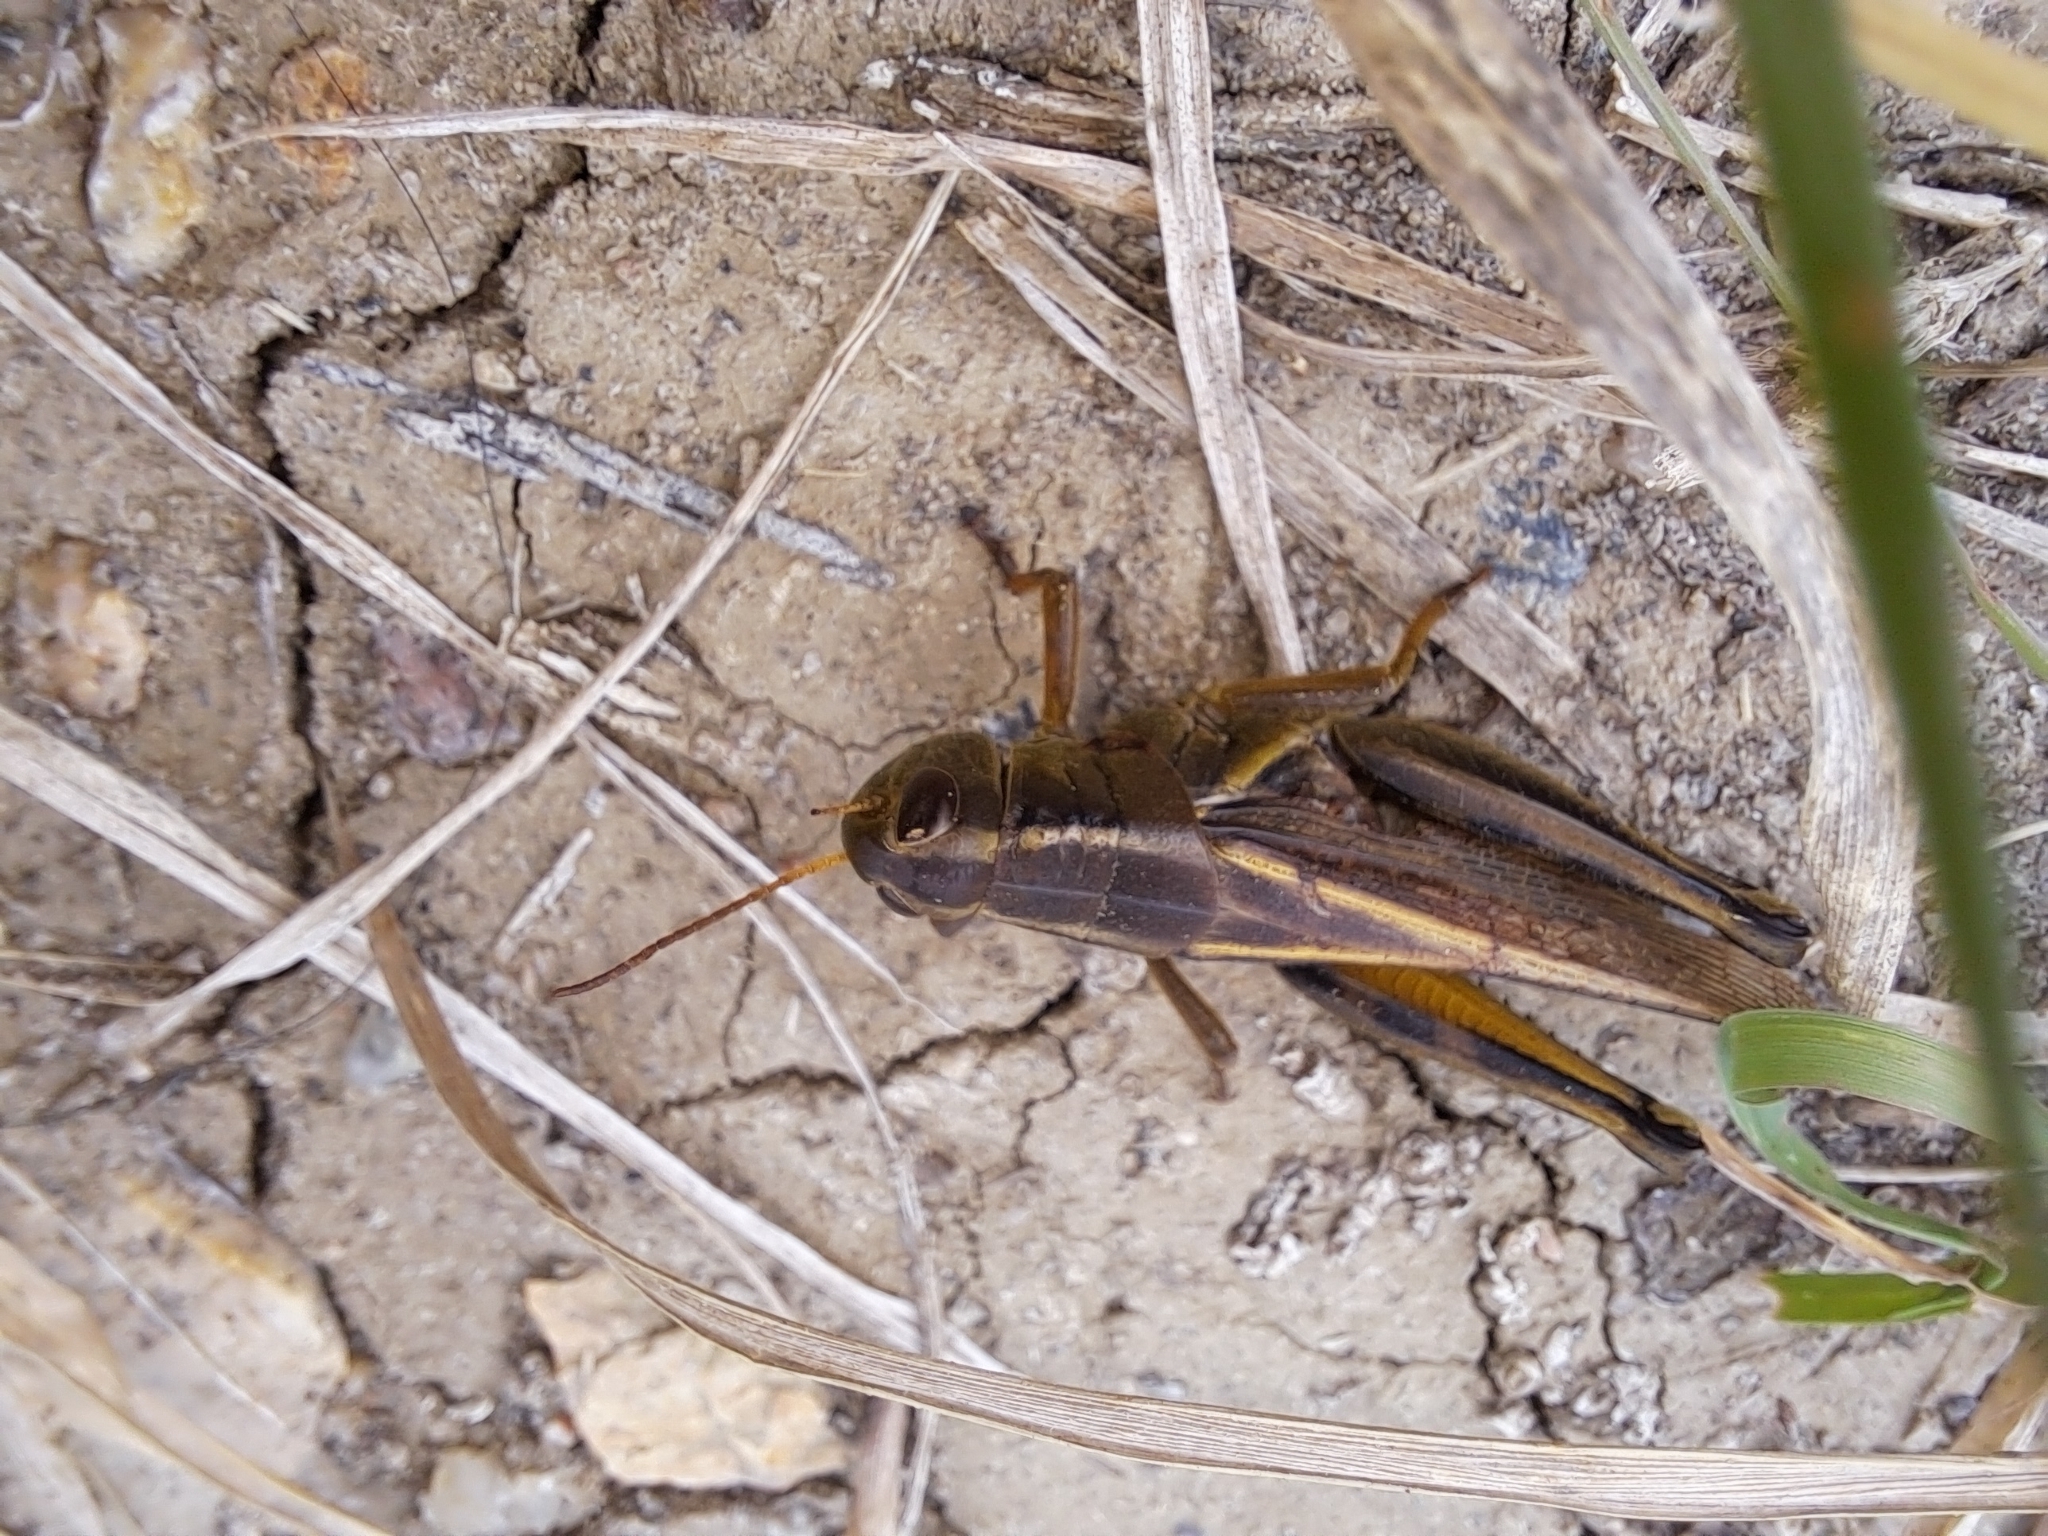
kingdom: Animalia
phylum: Arthropoda
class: Insecta
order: Orthoptera
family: Acrididae
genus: Melanoplus
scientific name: Melanoplus bivittatus
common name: Two-striped grasshopper
